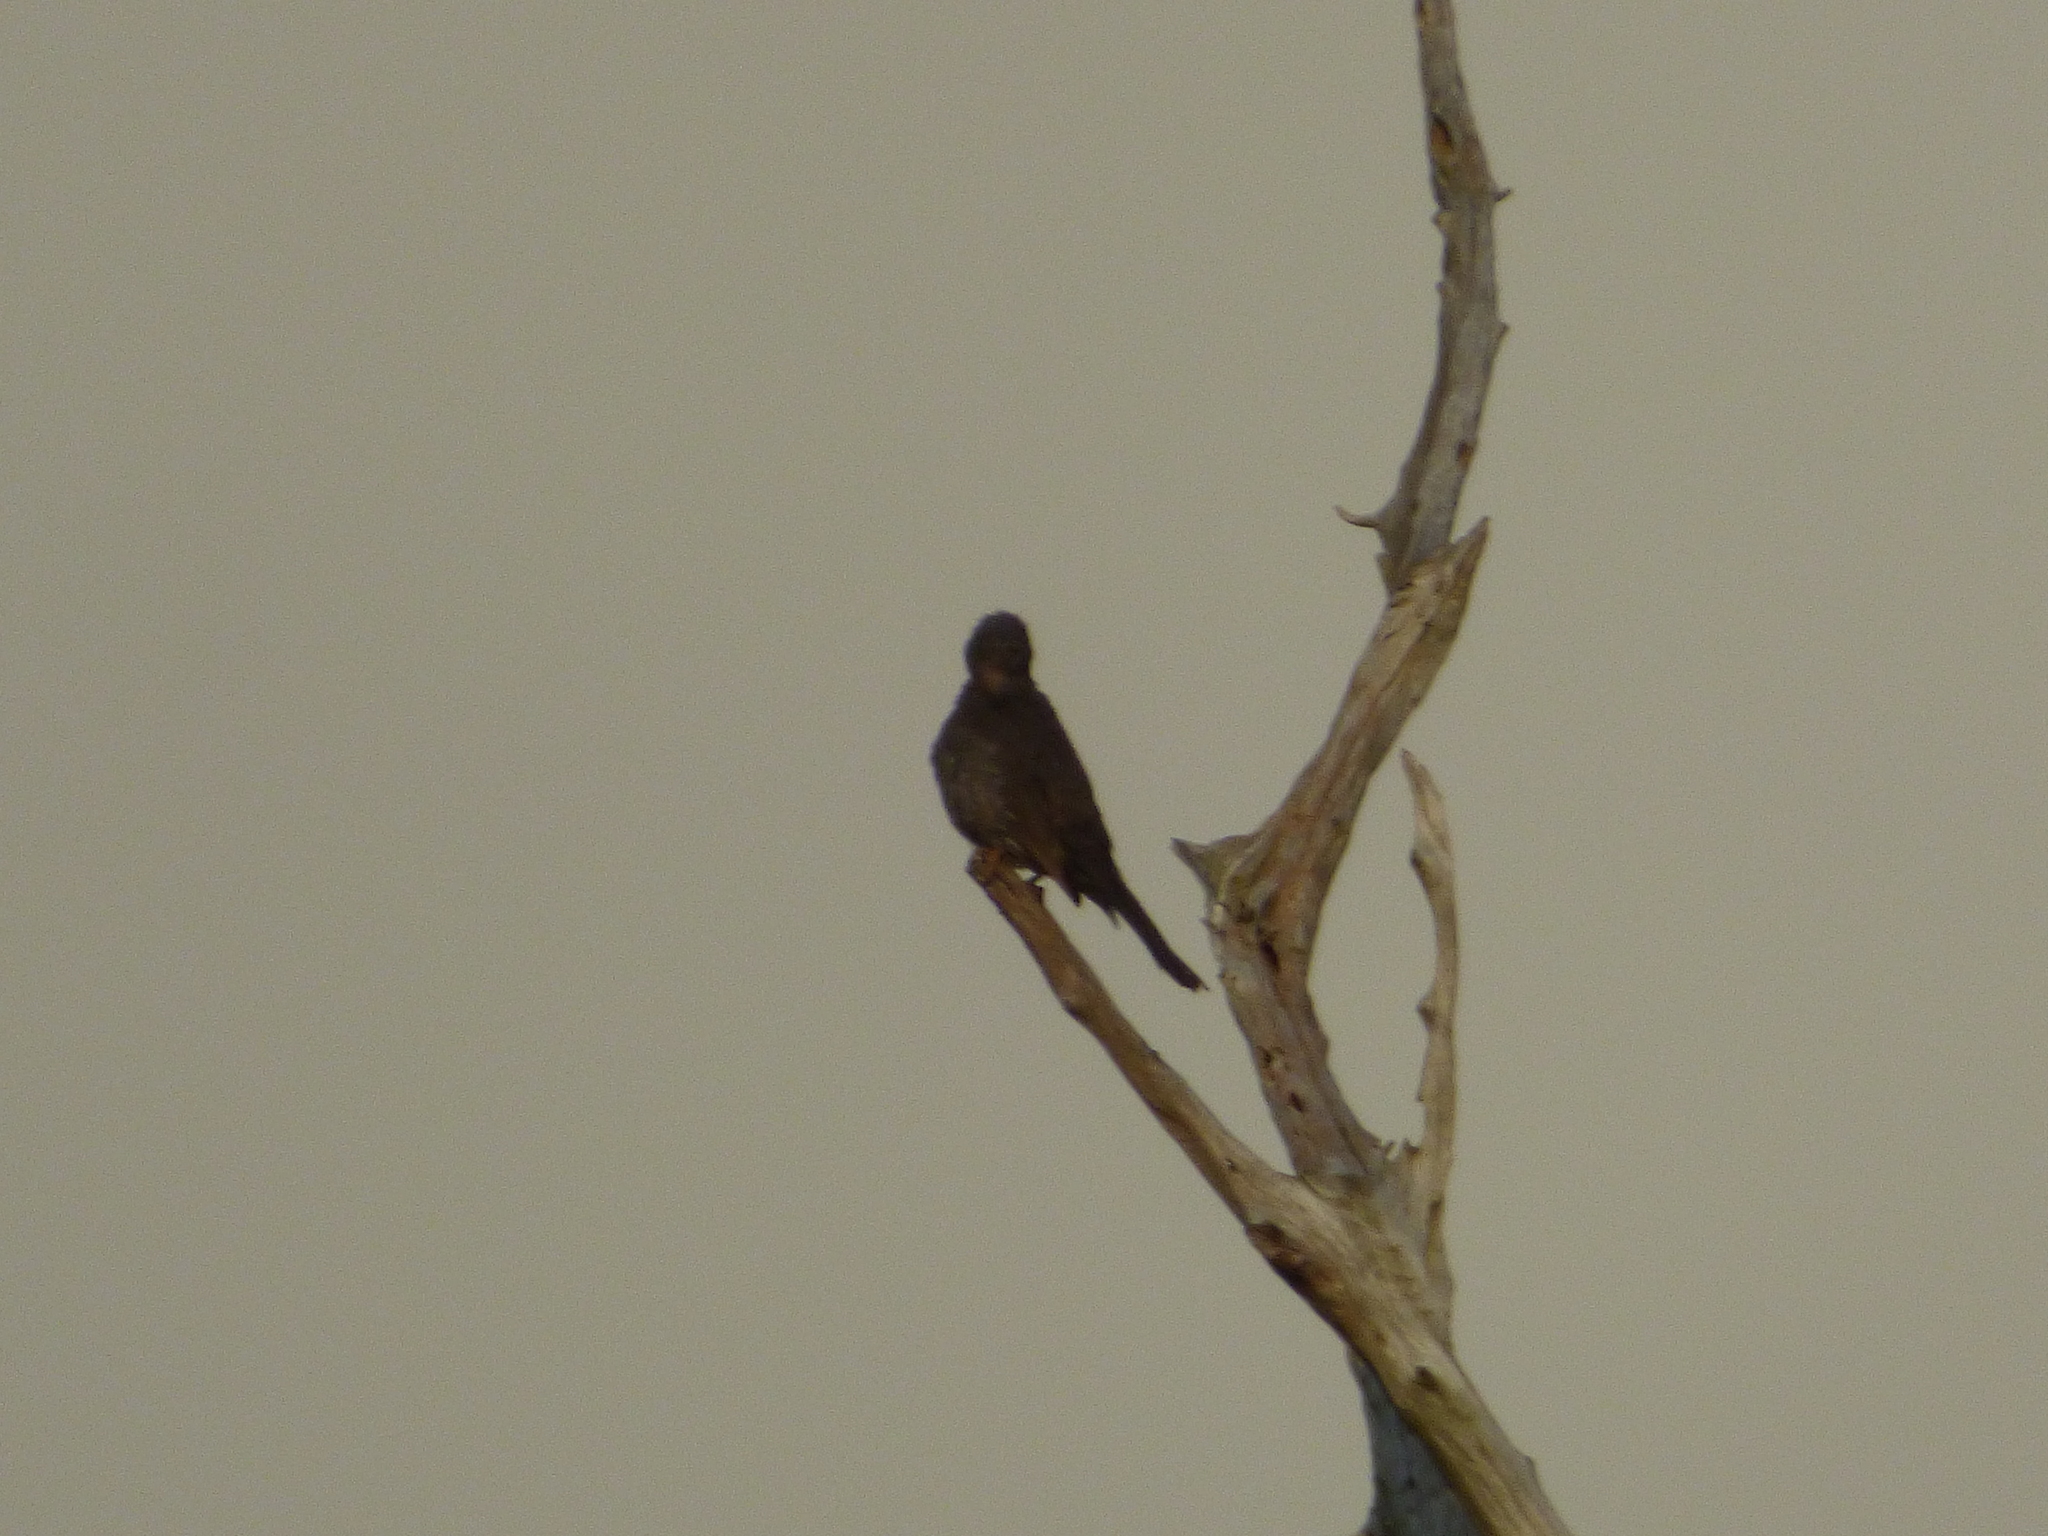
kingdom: Animalia
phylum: Chordata
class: Aves
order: Passeriformes
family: Pycnonotidae
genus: Hypsipetes
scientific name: Hypsipetes amaurotis
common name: Brown-eared bulbul
